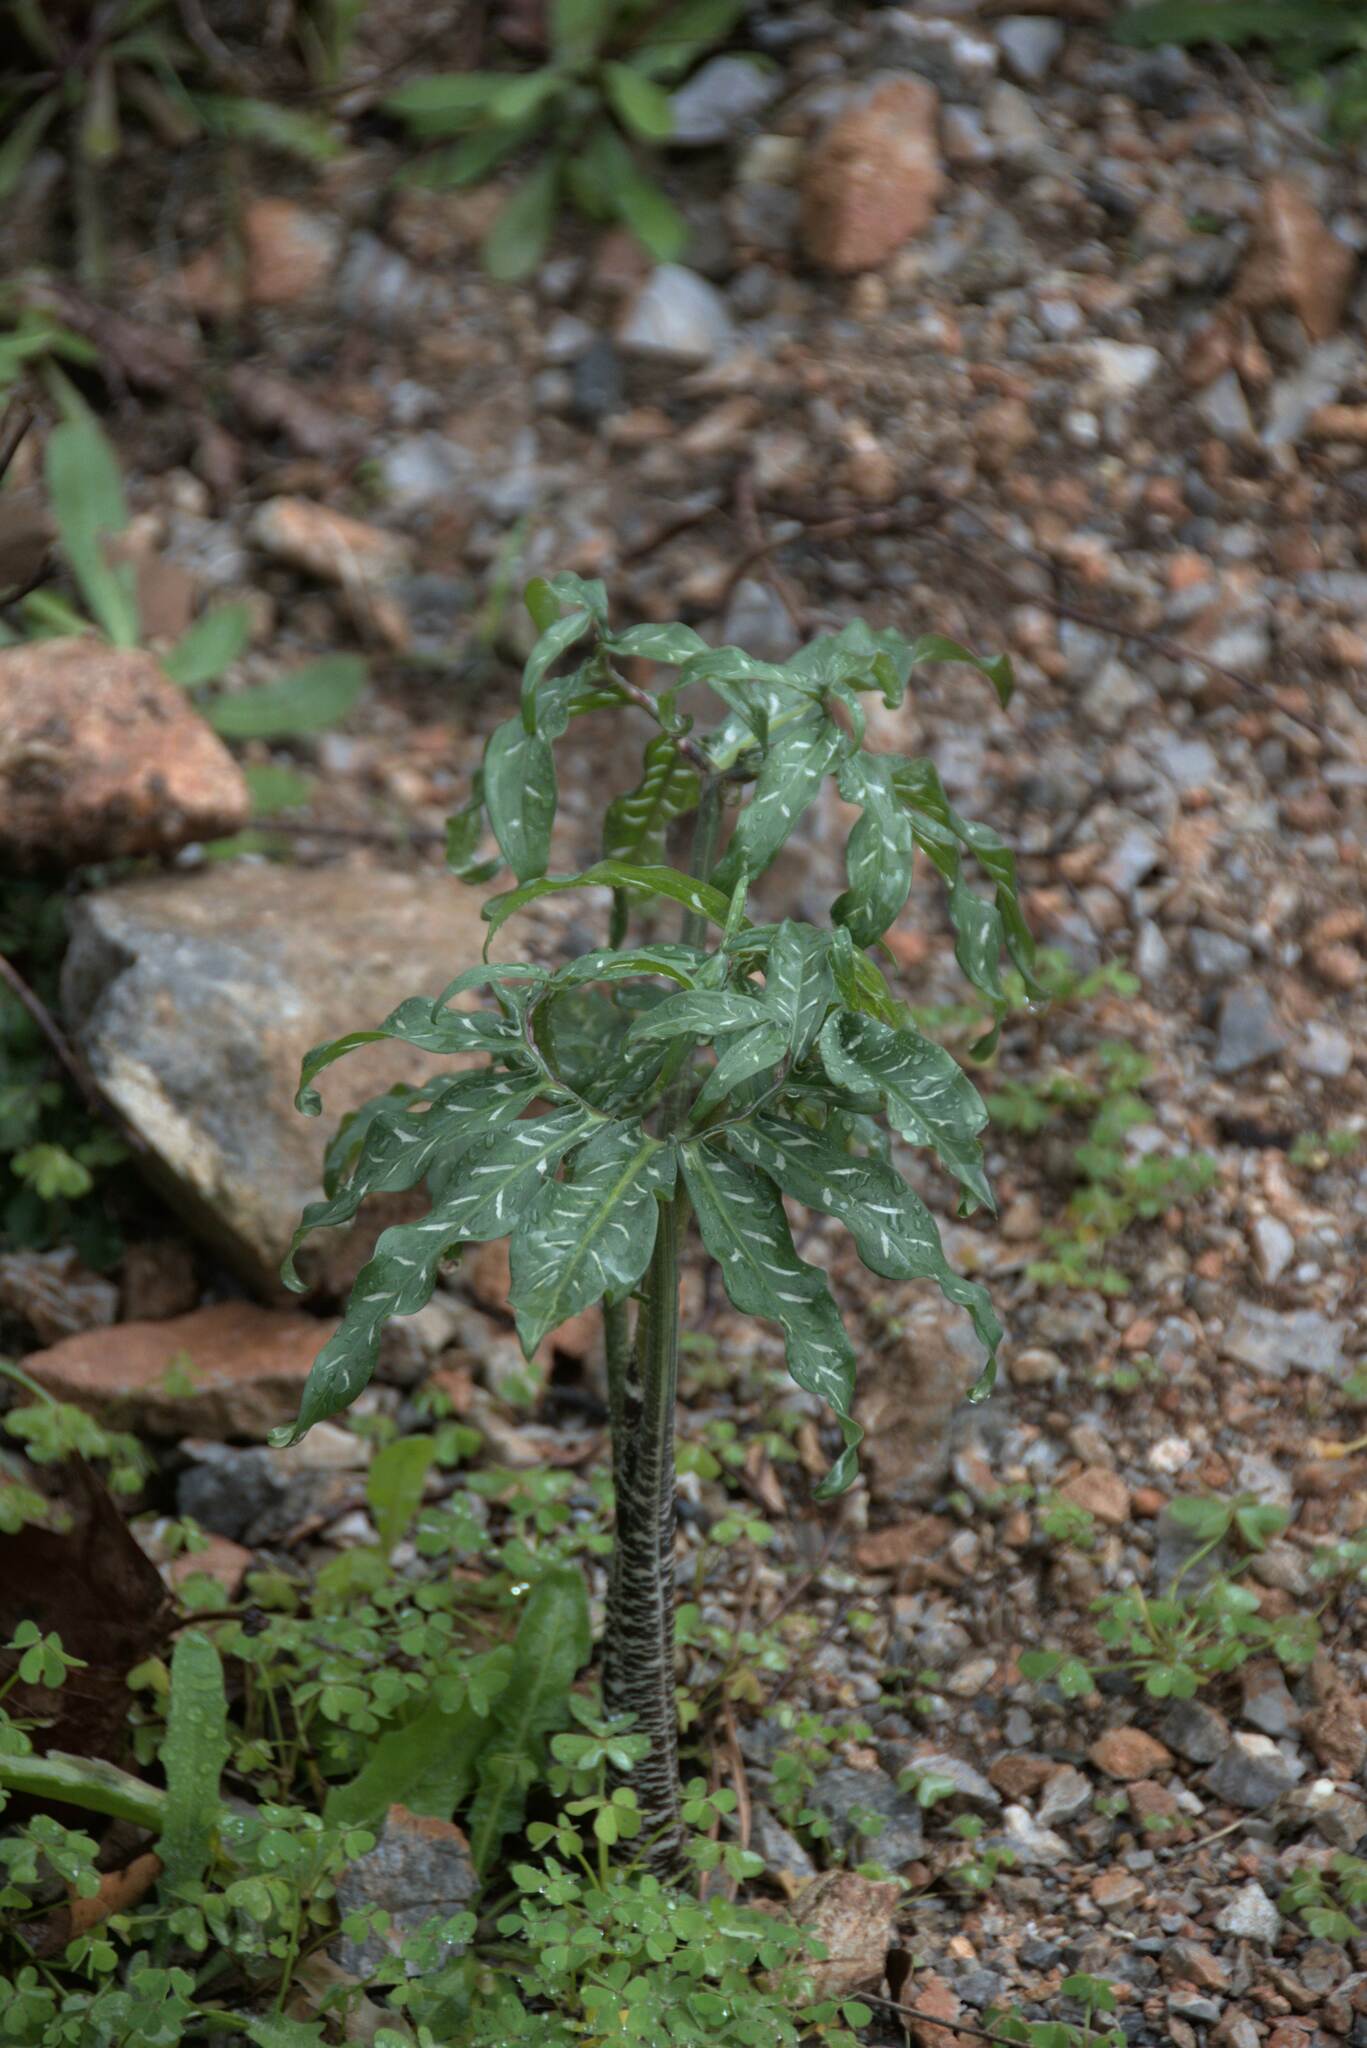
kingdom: Plantae
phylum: Tracheophyta
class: Liliopsida
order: Alismatales
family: Araceae
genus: Dracunculus
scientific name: Dracunculus vulgaris
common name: Dragon arum
